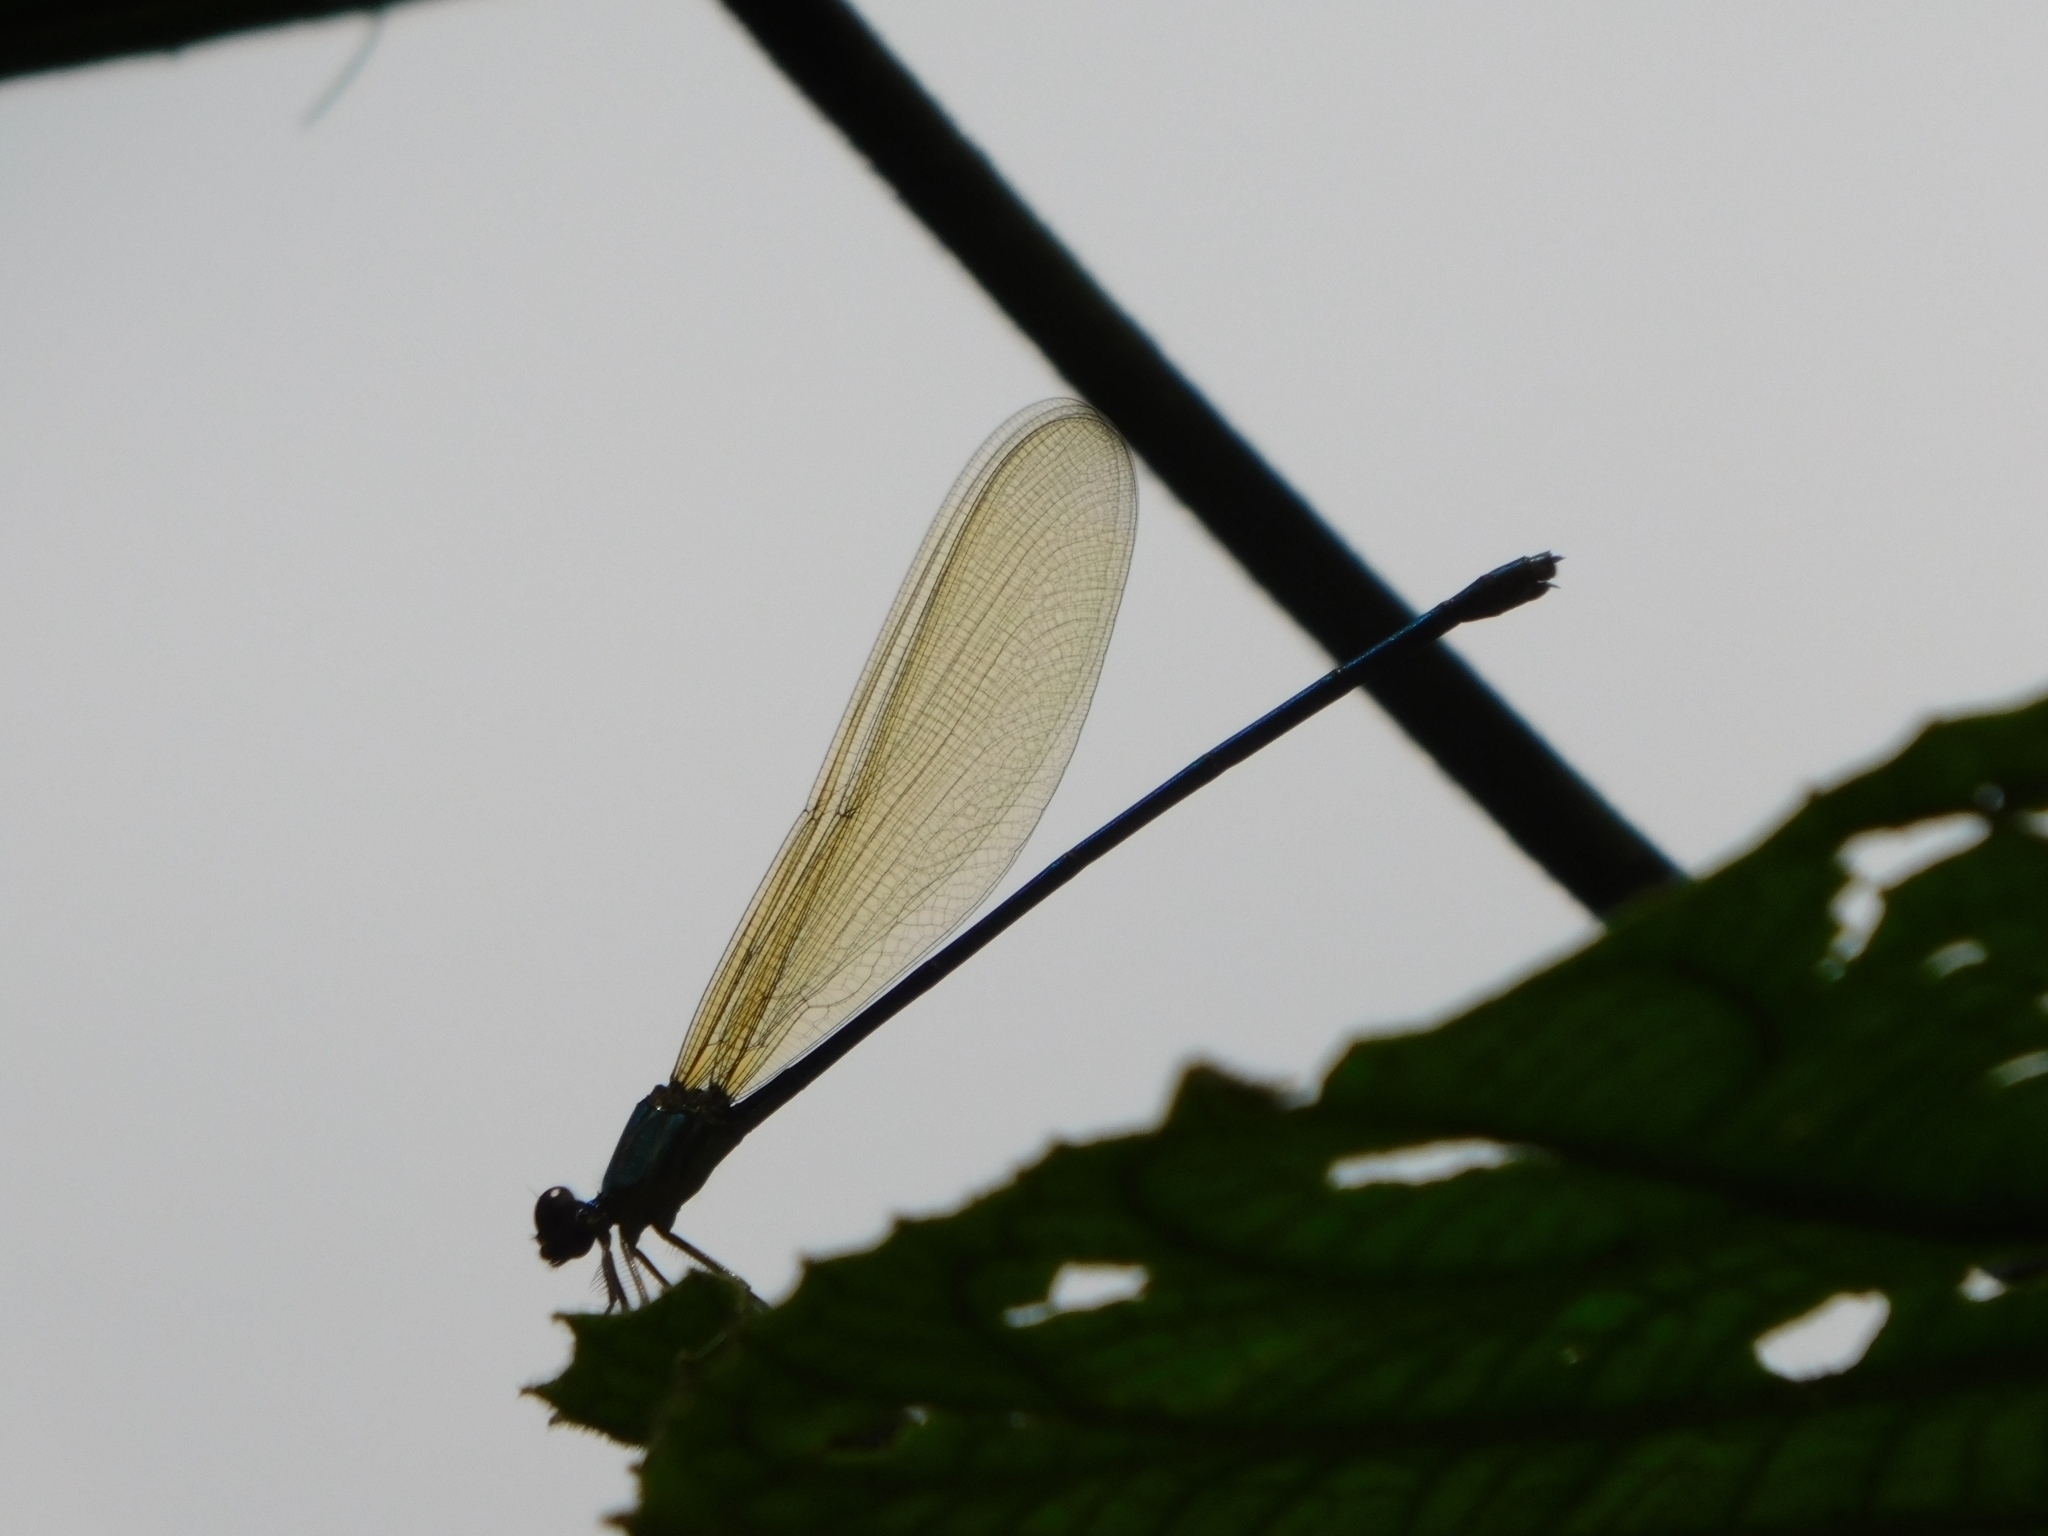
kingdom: Animalia
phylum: Arthropoda
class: Insecta
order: Odonata
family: Calopterygidae
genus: Vestalis
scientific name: Vestalis gracilis
